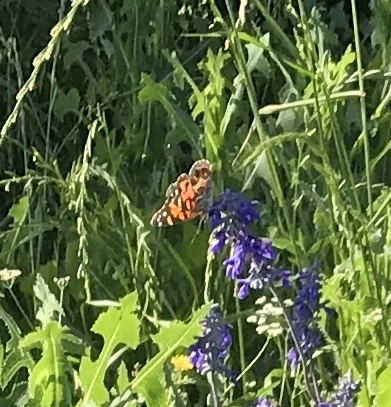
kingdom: Animalia
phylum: Arthropoda
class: Insecta
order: Lepidoptera
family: Nymphalidae
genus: Vanessa
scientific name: Vanessa virginiensis
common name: American lady
